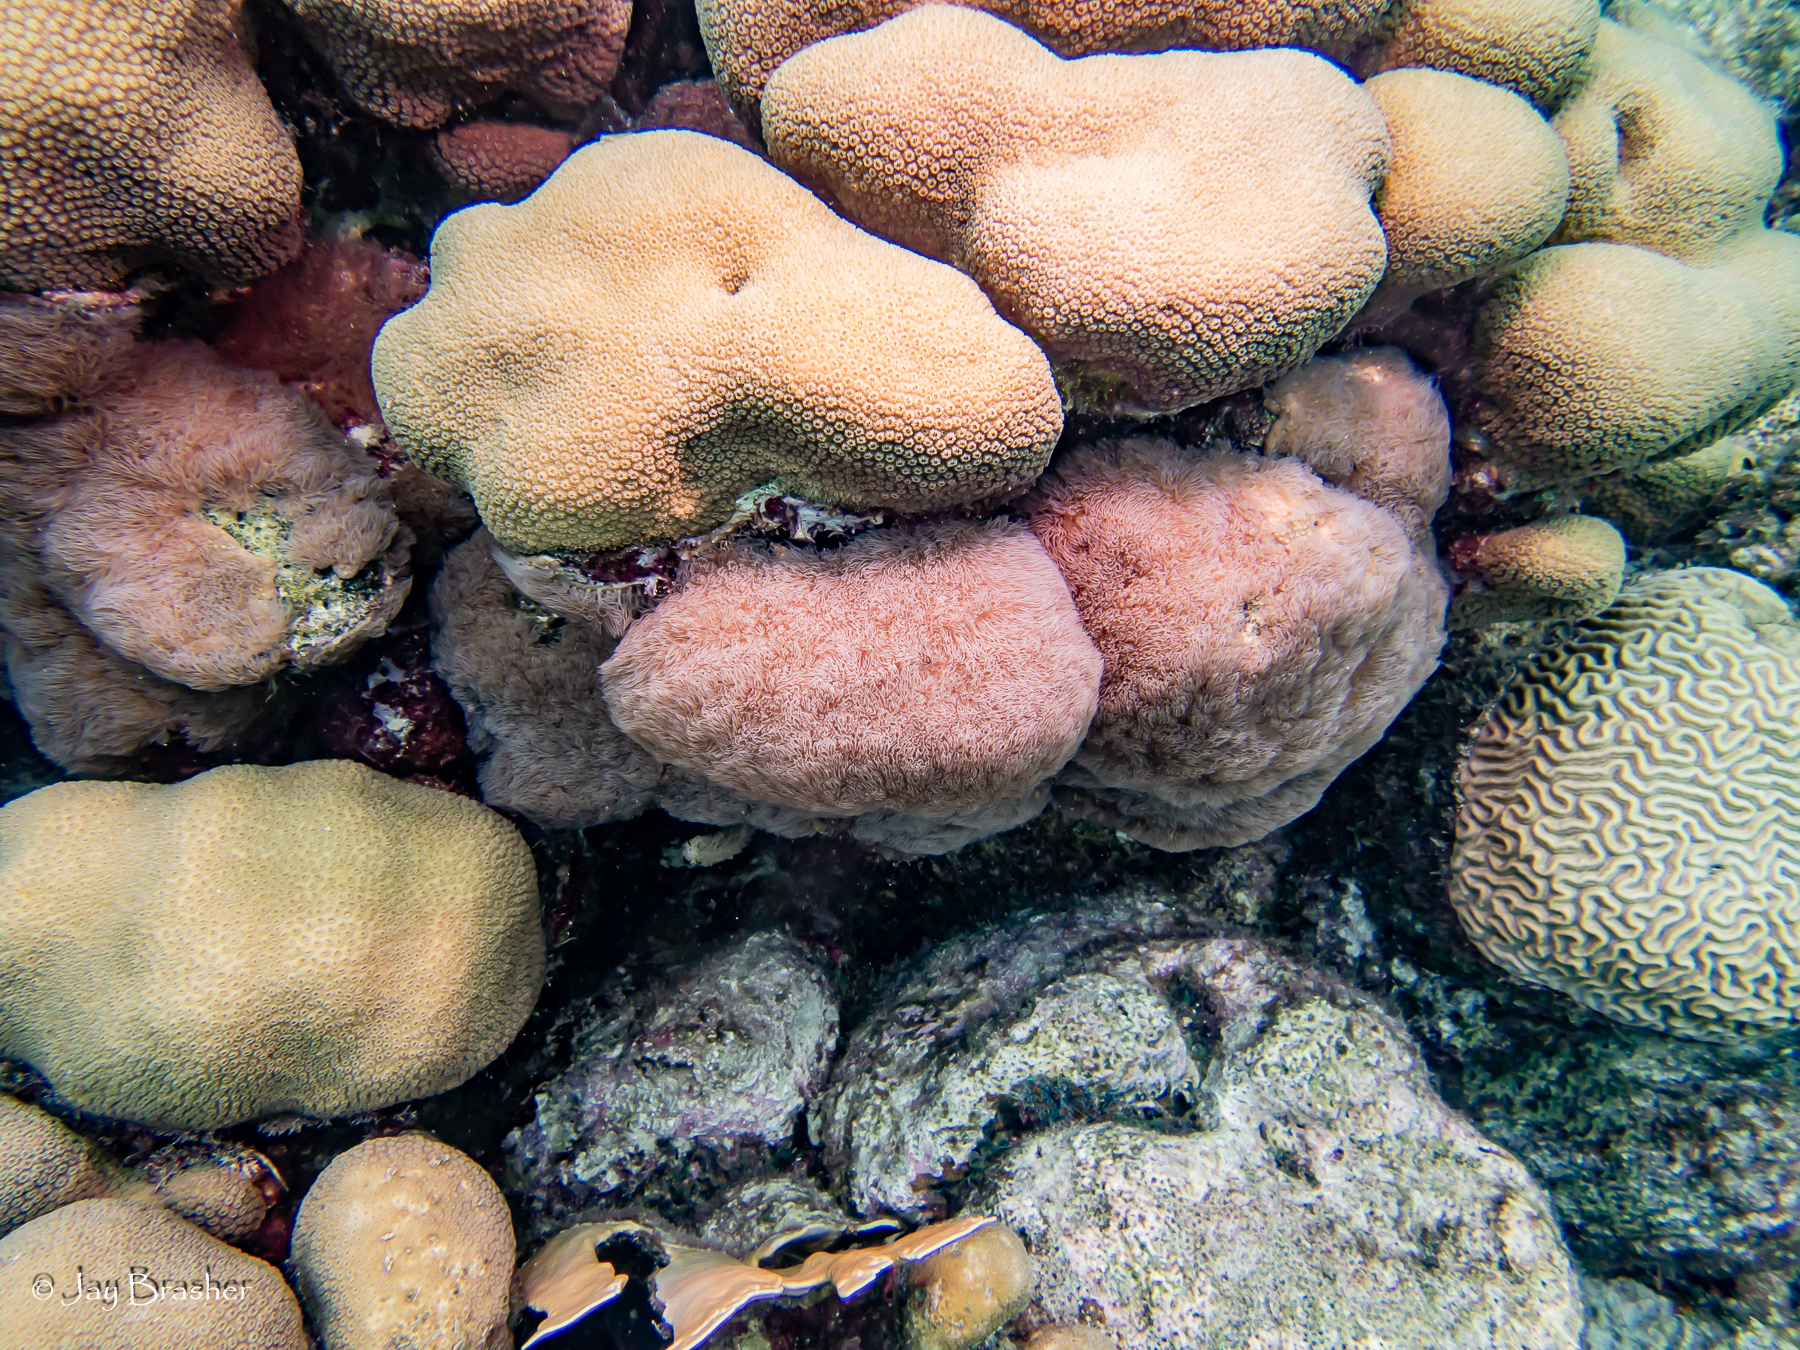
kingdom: Animalia
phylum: Cnidaria
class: Anthozoa
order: Scleractinia
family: Merulinidae
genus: Orbicella
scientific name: Orbicella annularis
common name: Boulder star coral
